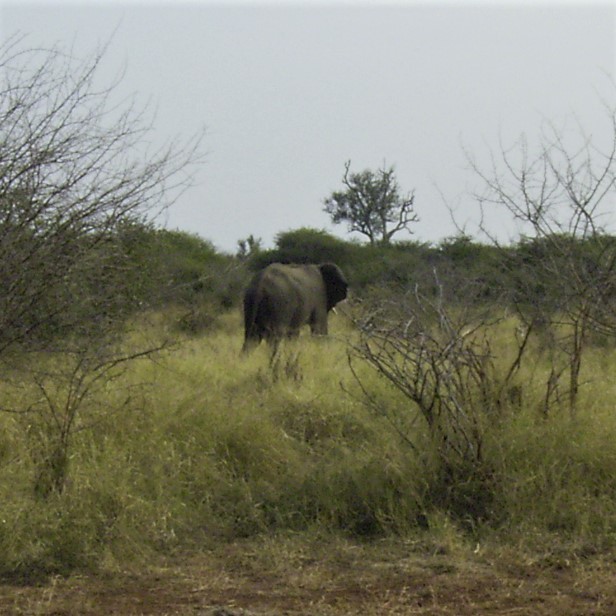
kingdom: Animalia
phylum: Chordata
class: Mammalia
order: Proboscidea
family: Elephantidae
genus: Loxodonta
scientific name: Loxodonta africana
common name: African elephant
